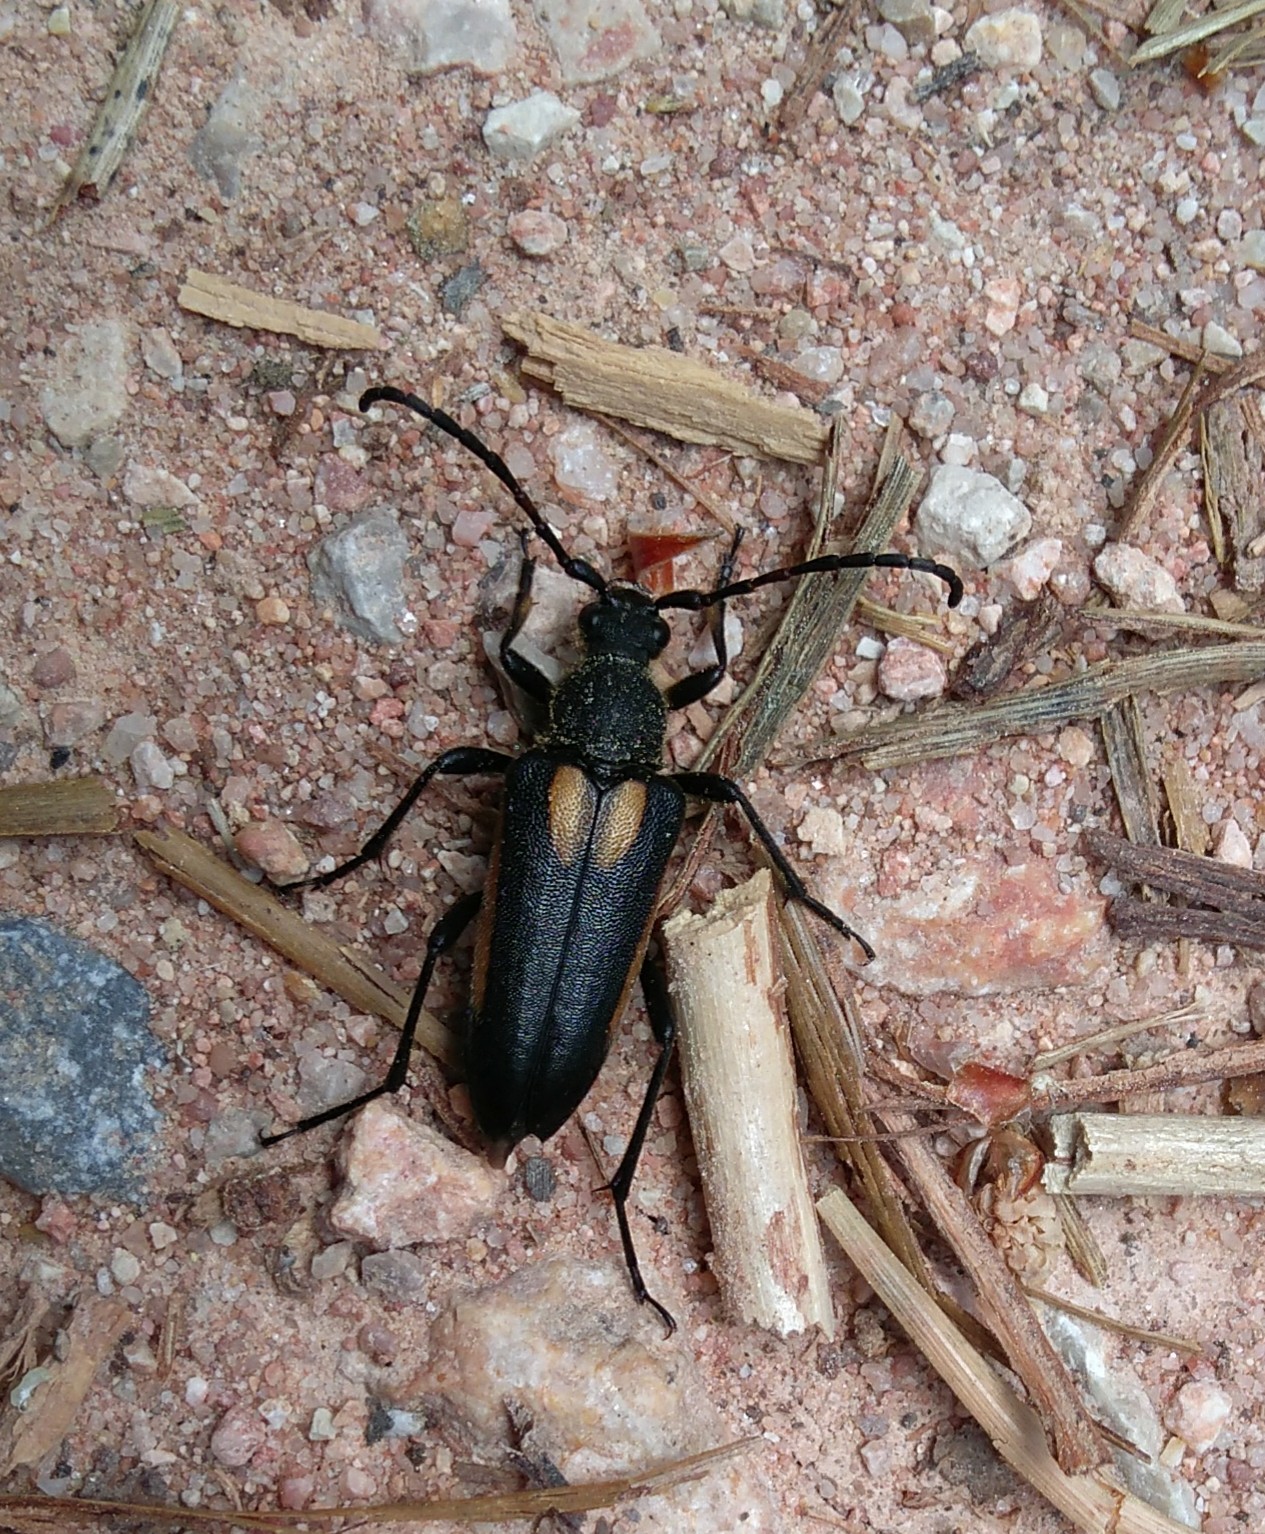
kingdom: Animalia
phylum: Arthropoda
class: Insecta
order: Coleoptera
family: Cerambycidae
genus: Stictoleptura
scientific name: Stictoleptura stragulata
